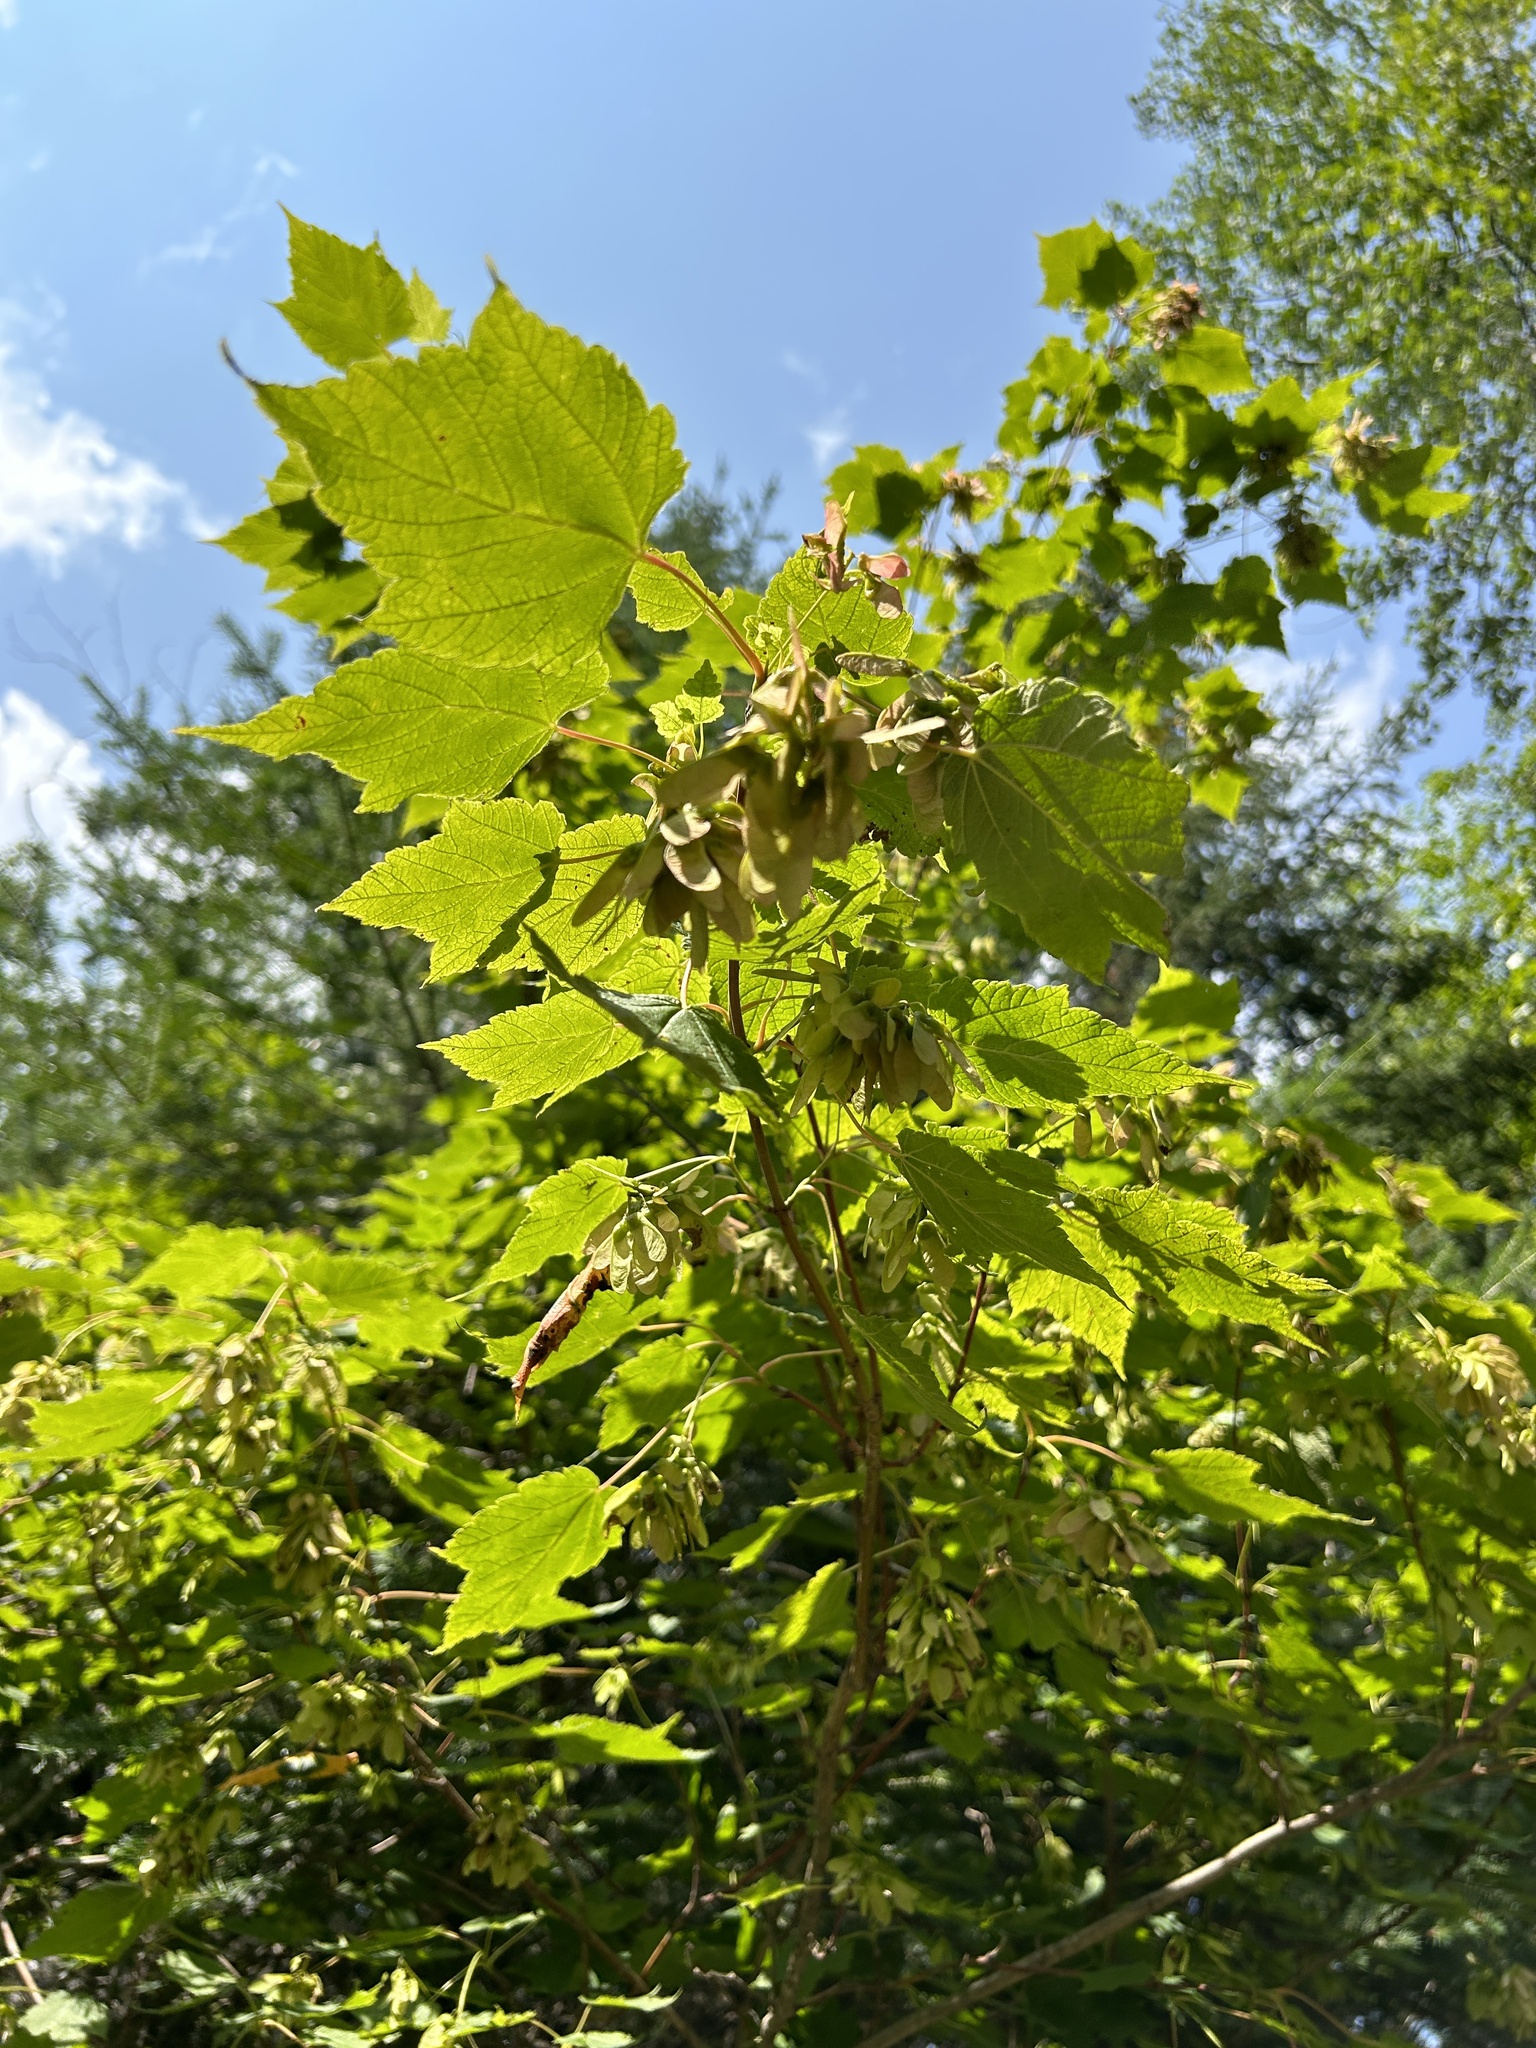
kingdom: Plantae
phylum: Tracheophyta
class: Magnoliopsida
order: Sapindales
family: Sapindaceae
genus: Acer
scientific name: Acer spicatum
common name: Mountain maple
